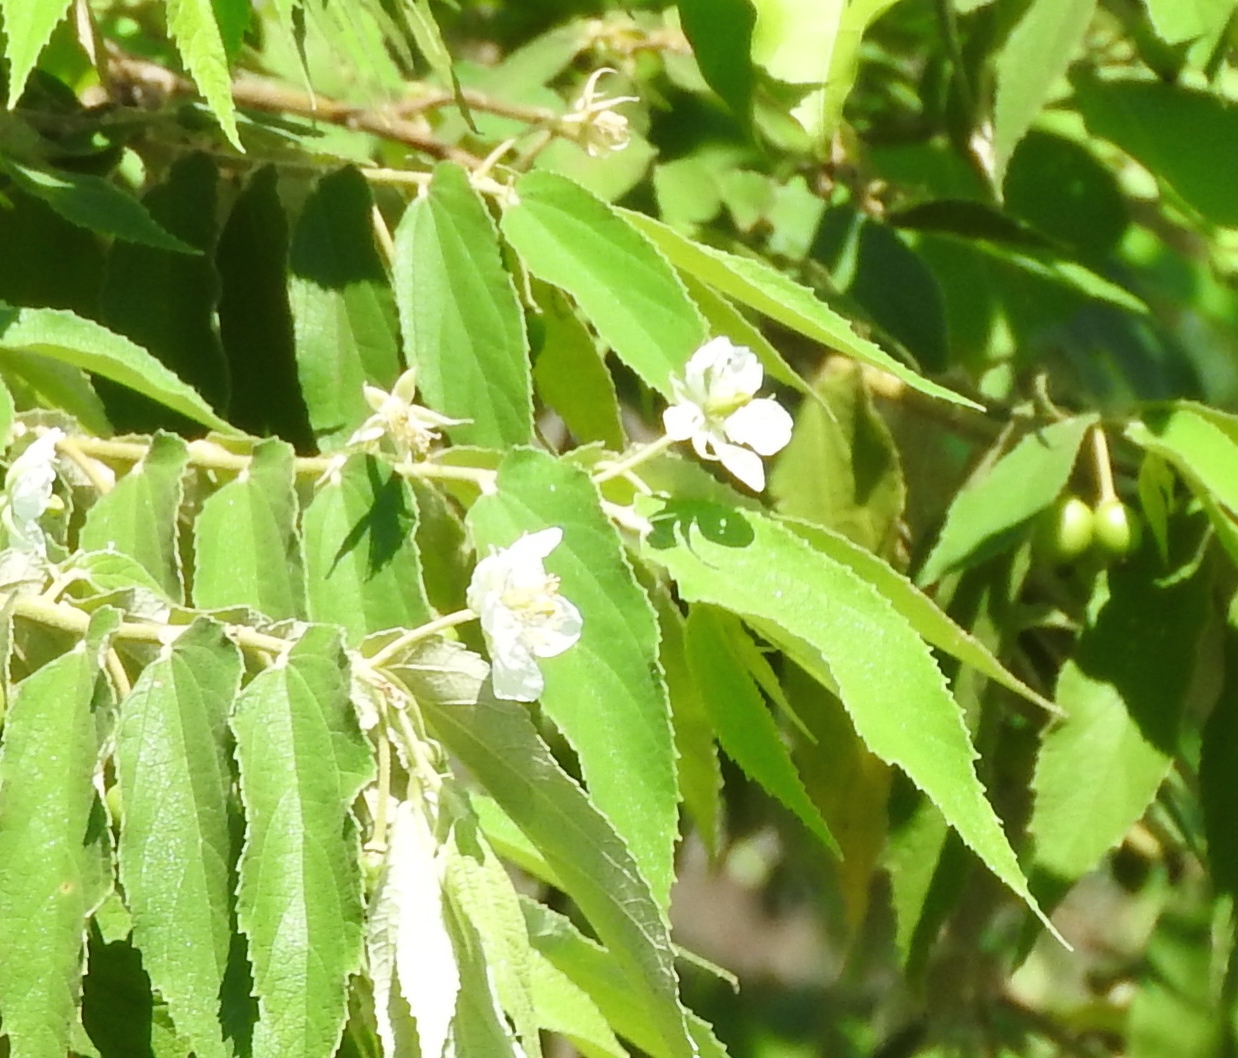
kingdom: Plantae
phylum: Tracheophyta
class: Magnoliopsida
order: Malvales
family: Muntingiaceae
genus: Muntingia
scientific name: Muntingia calabura
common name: Strawberrytree
